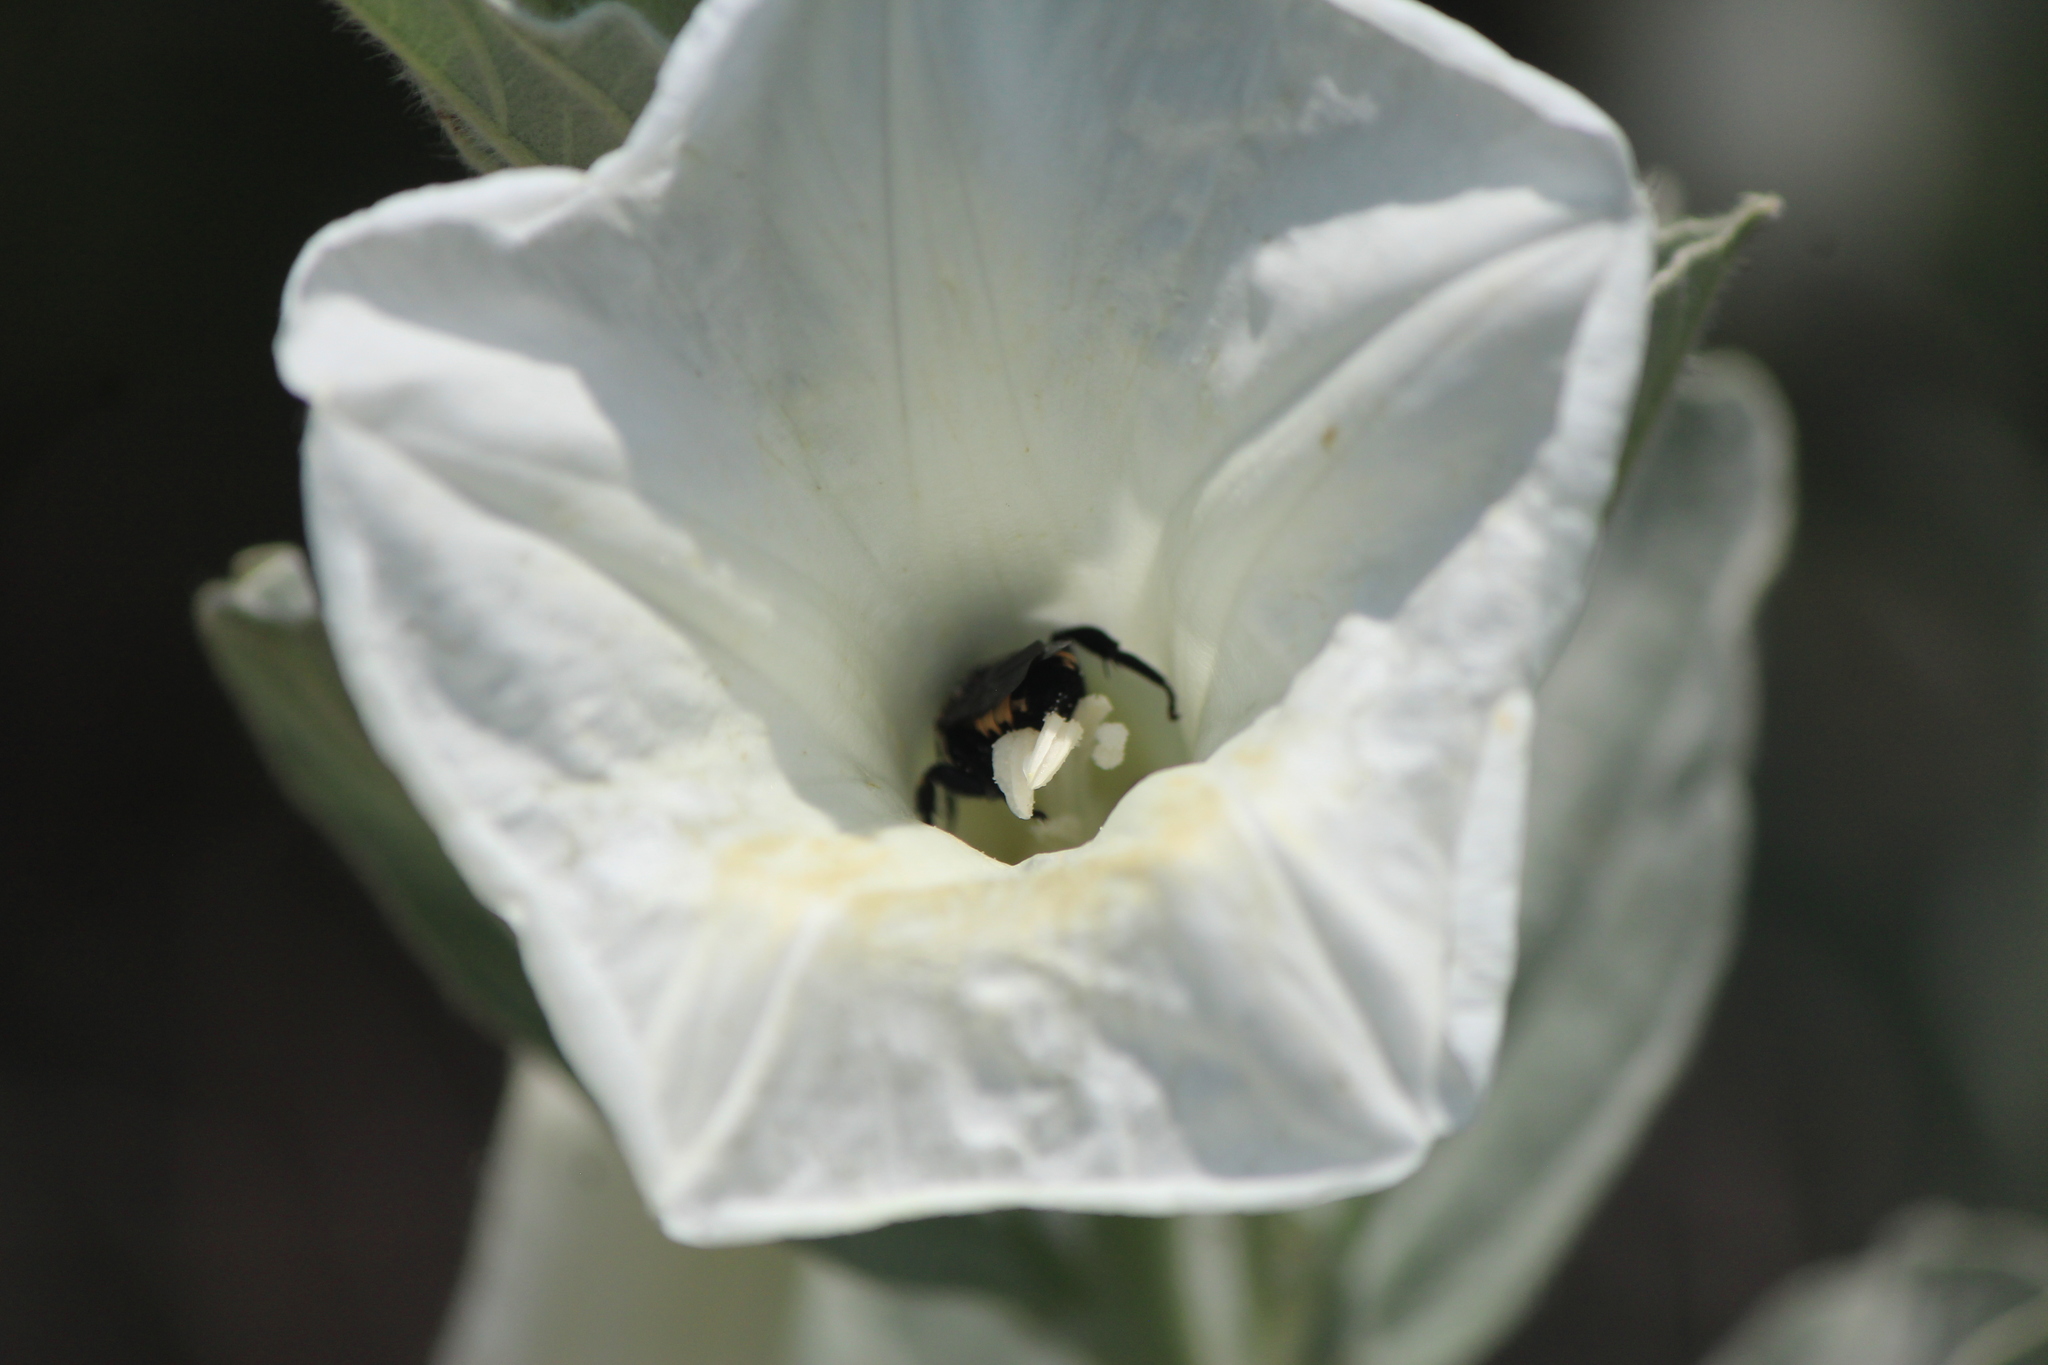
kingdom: Animalia
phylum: Arthropoda
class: Insecta
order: Hymenoptera
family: Apidae
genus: Ericrocis
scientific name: Ericrocis pintada
